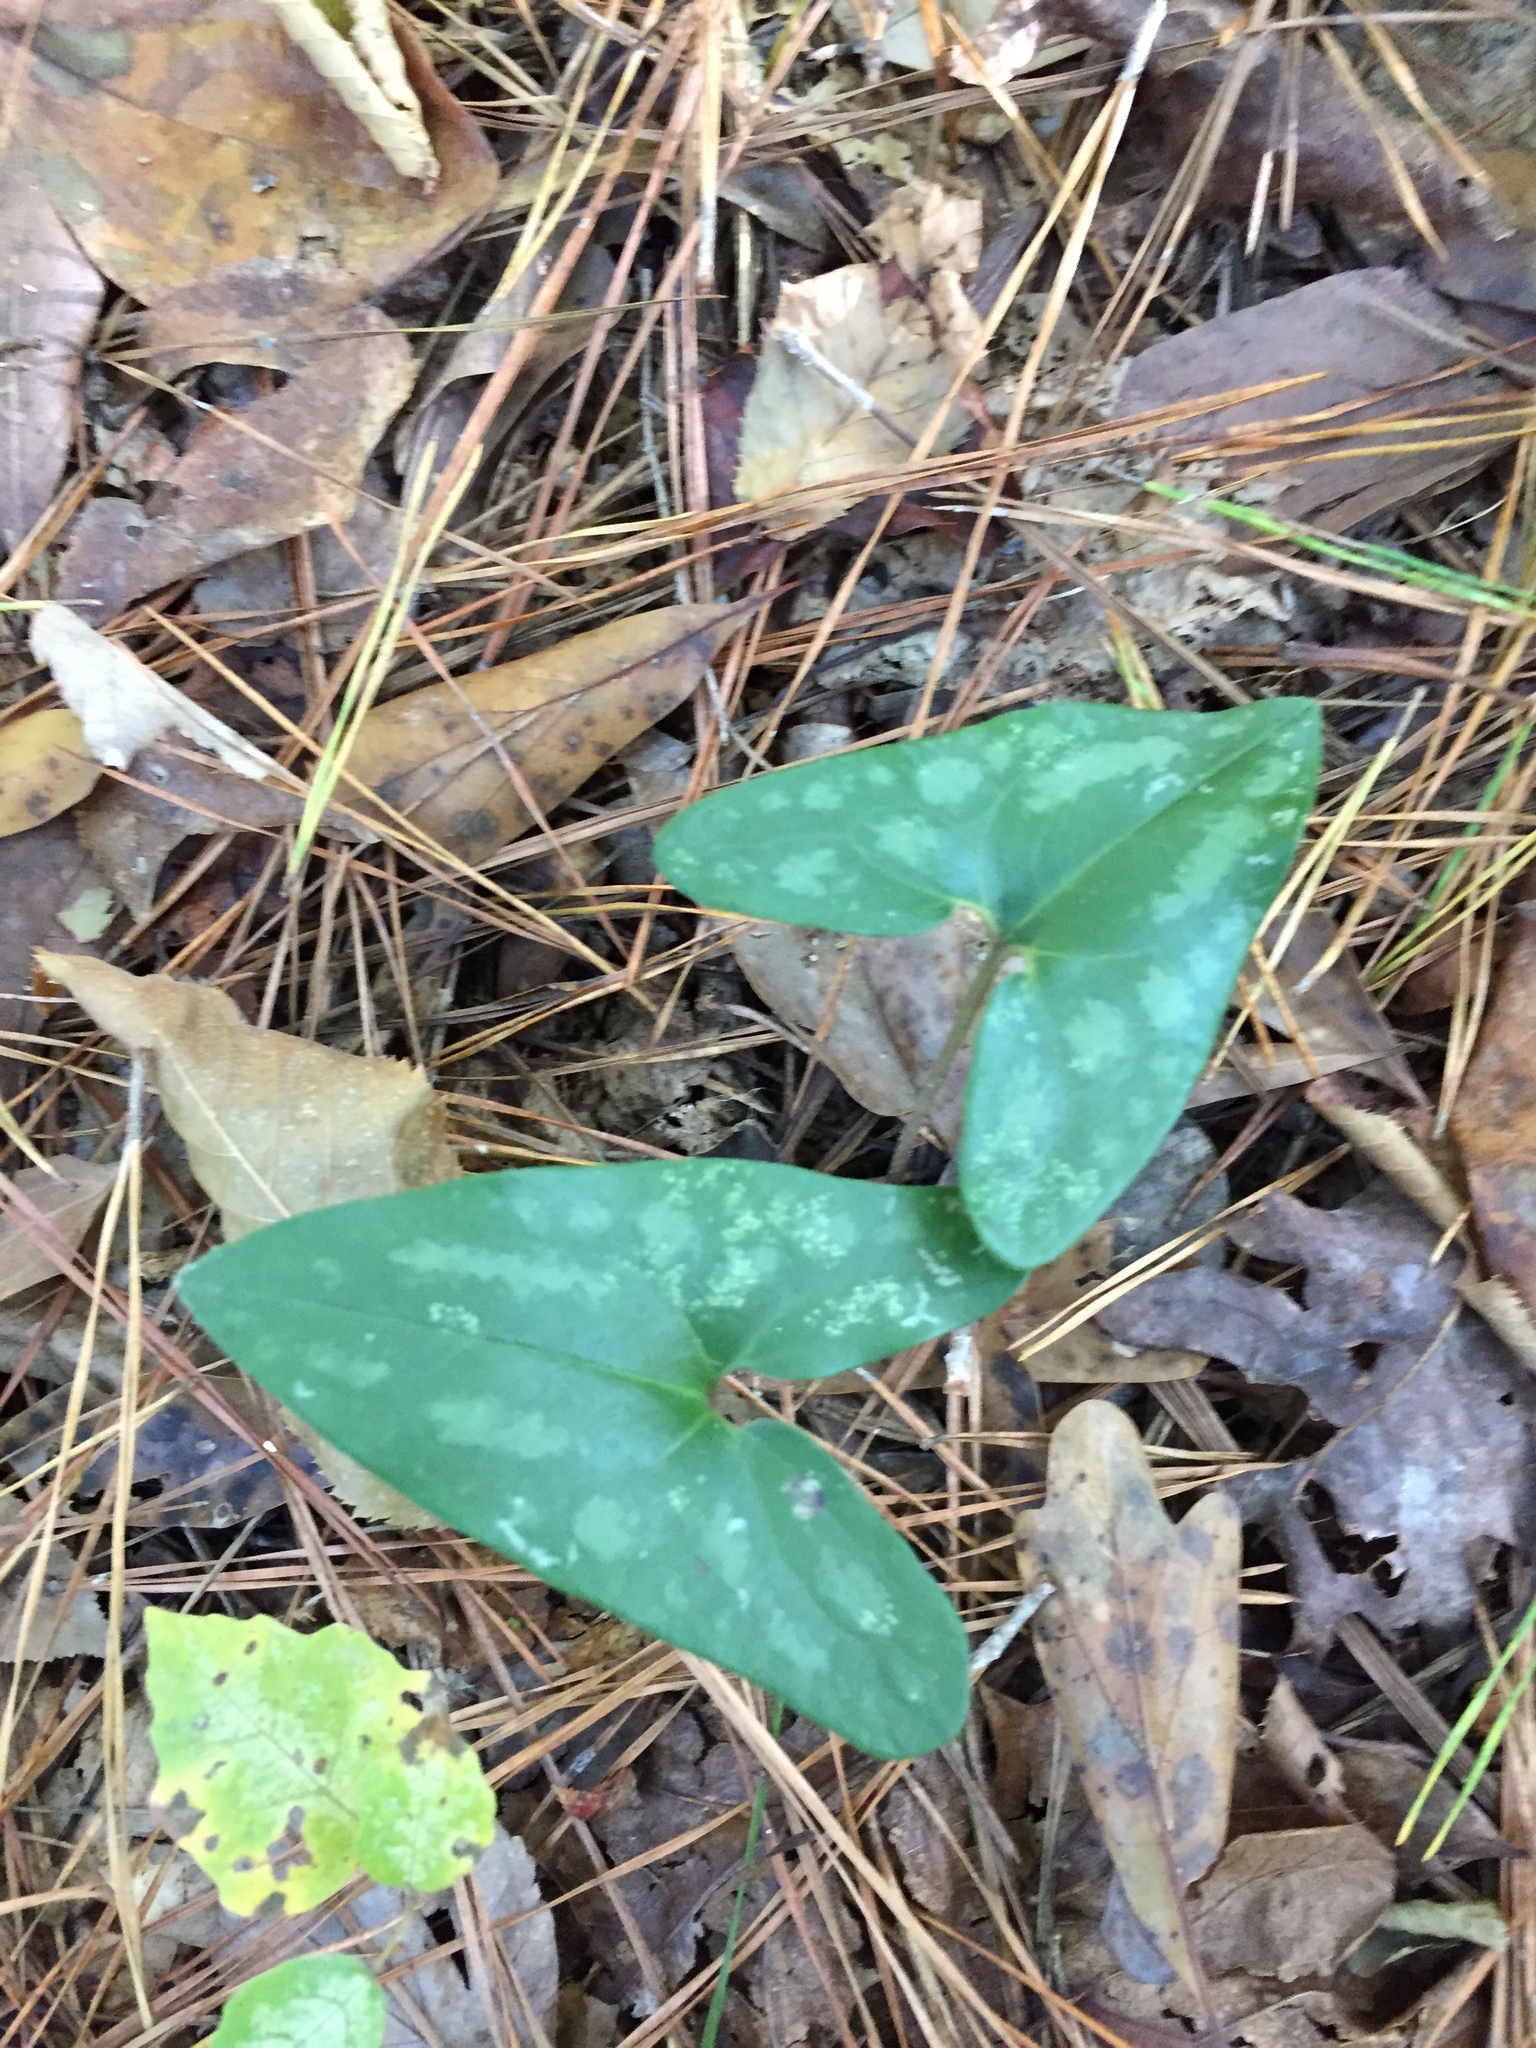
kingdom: Plantae
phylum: Tracheophyta
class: Magnoliopsida
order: Piperales
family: Aristolochiaceae
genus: Hexastylis
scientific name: Hexastylis arifolia
